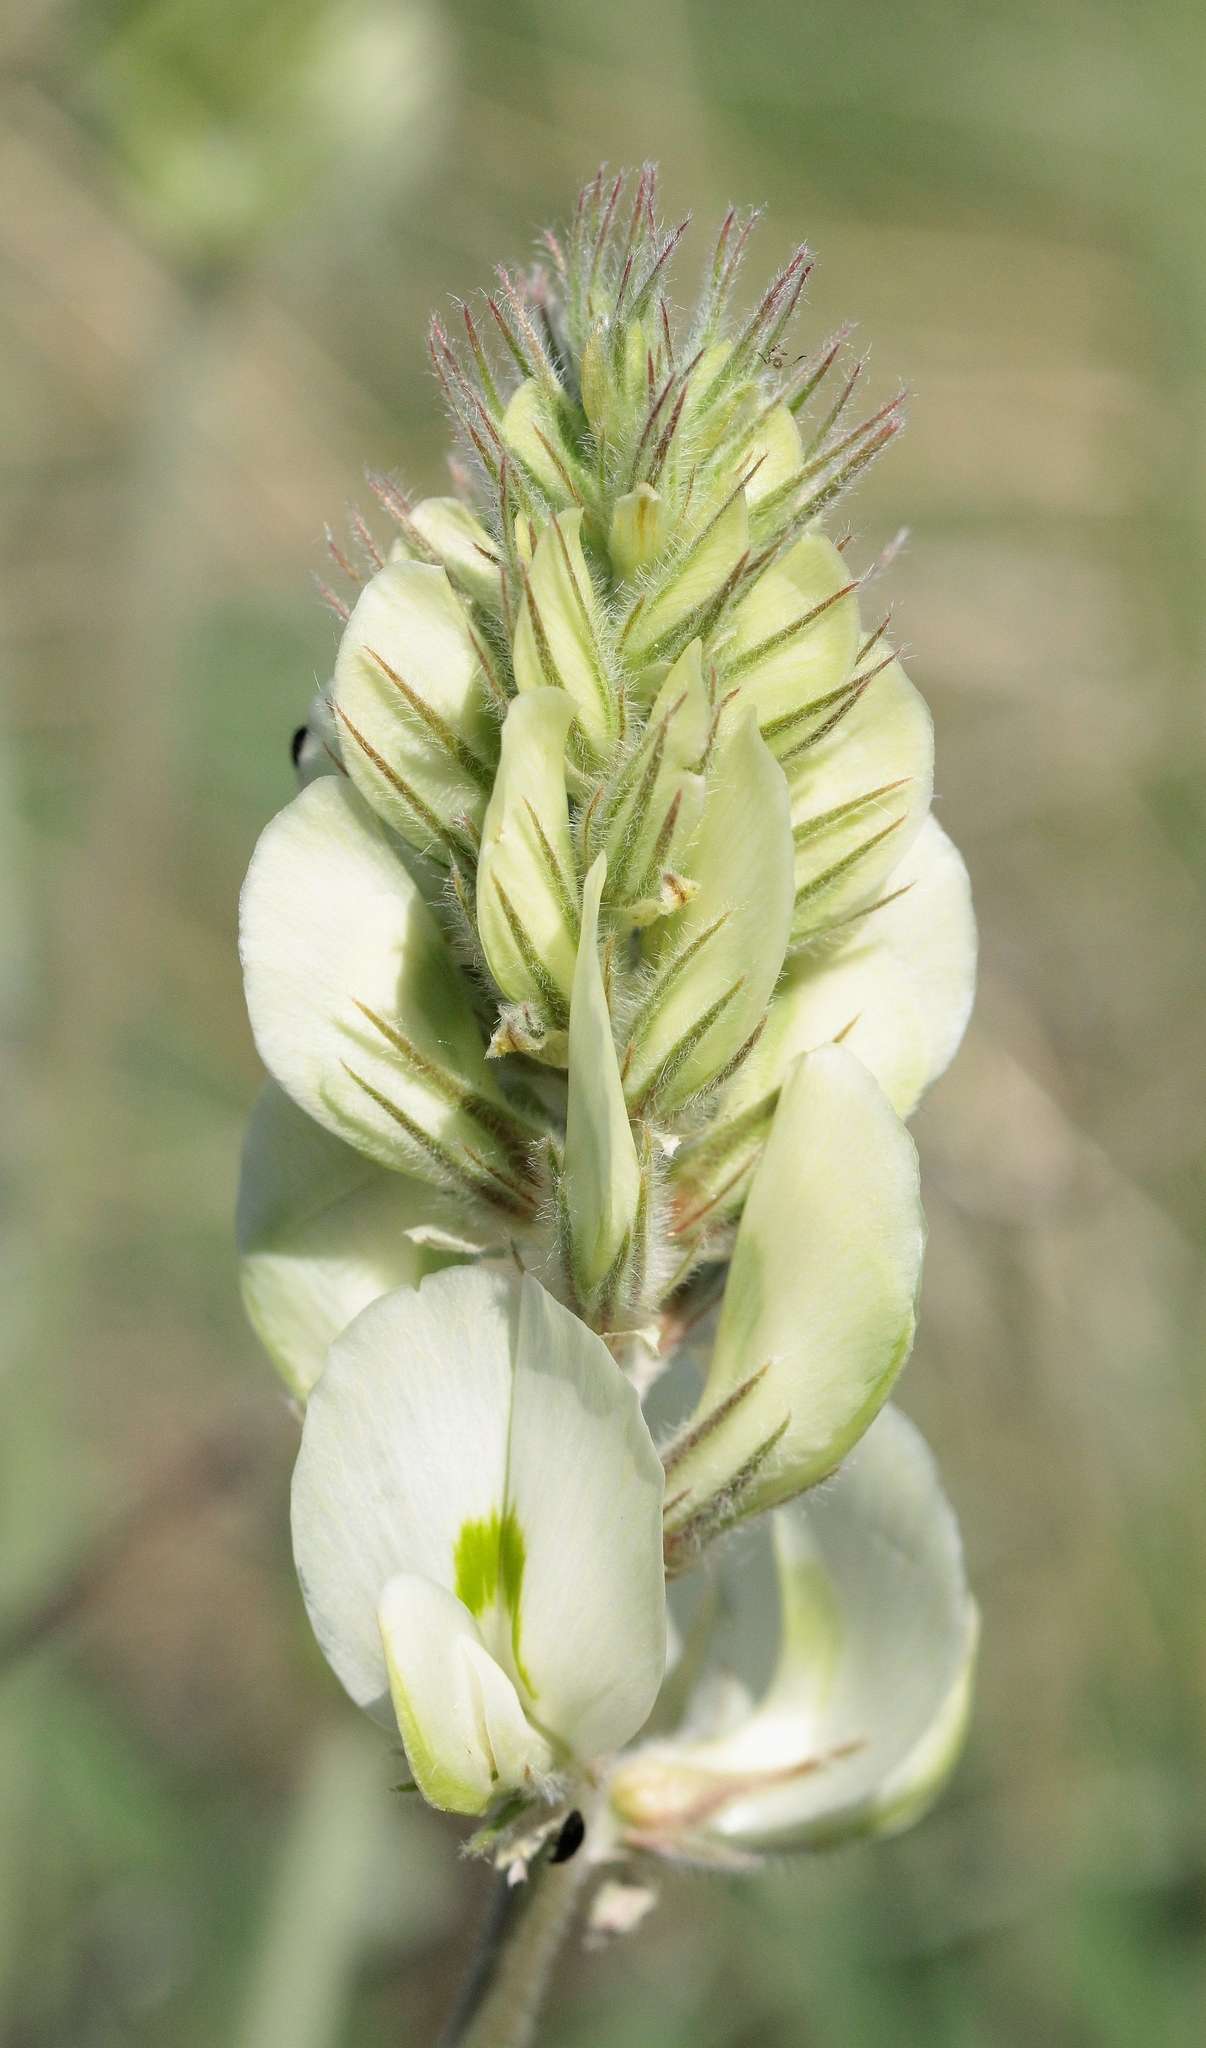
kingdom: Plantae
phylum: Tracheophyta
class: Magnoliopsida
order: Fabales
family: Fabaceae
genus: Hedysarum
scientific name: Hedysarum grandiflorum
